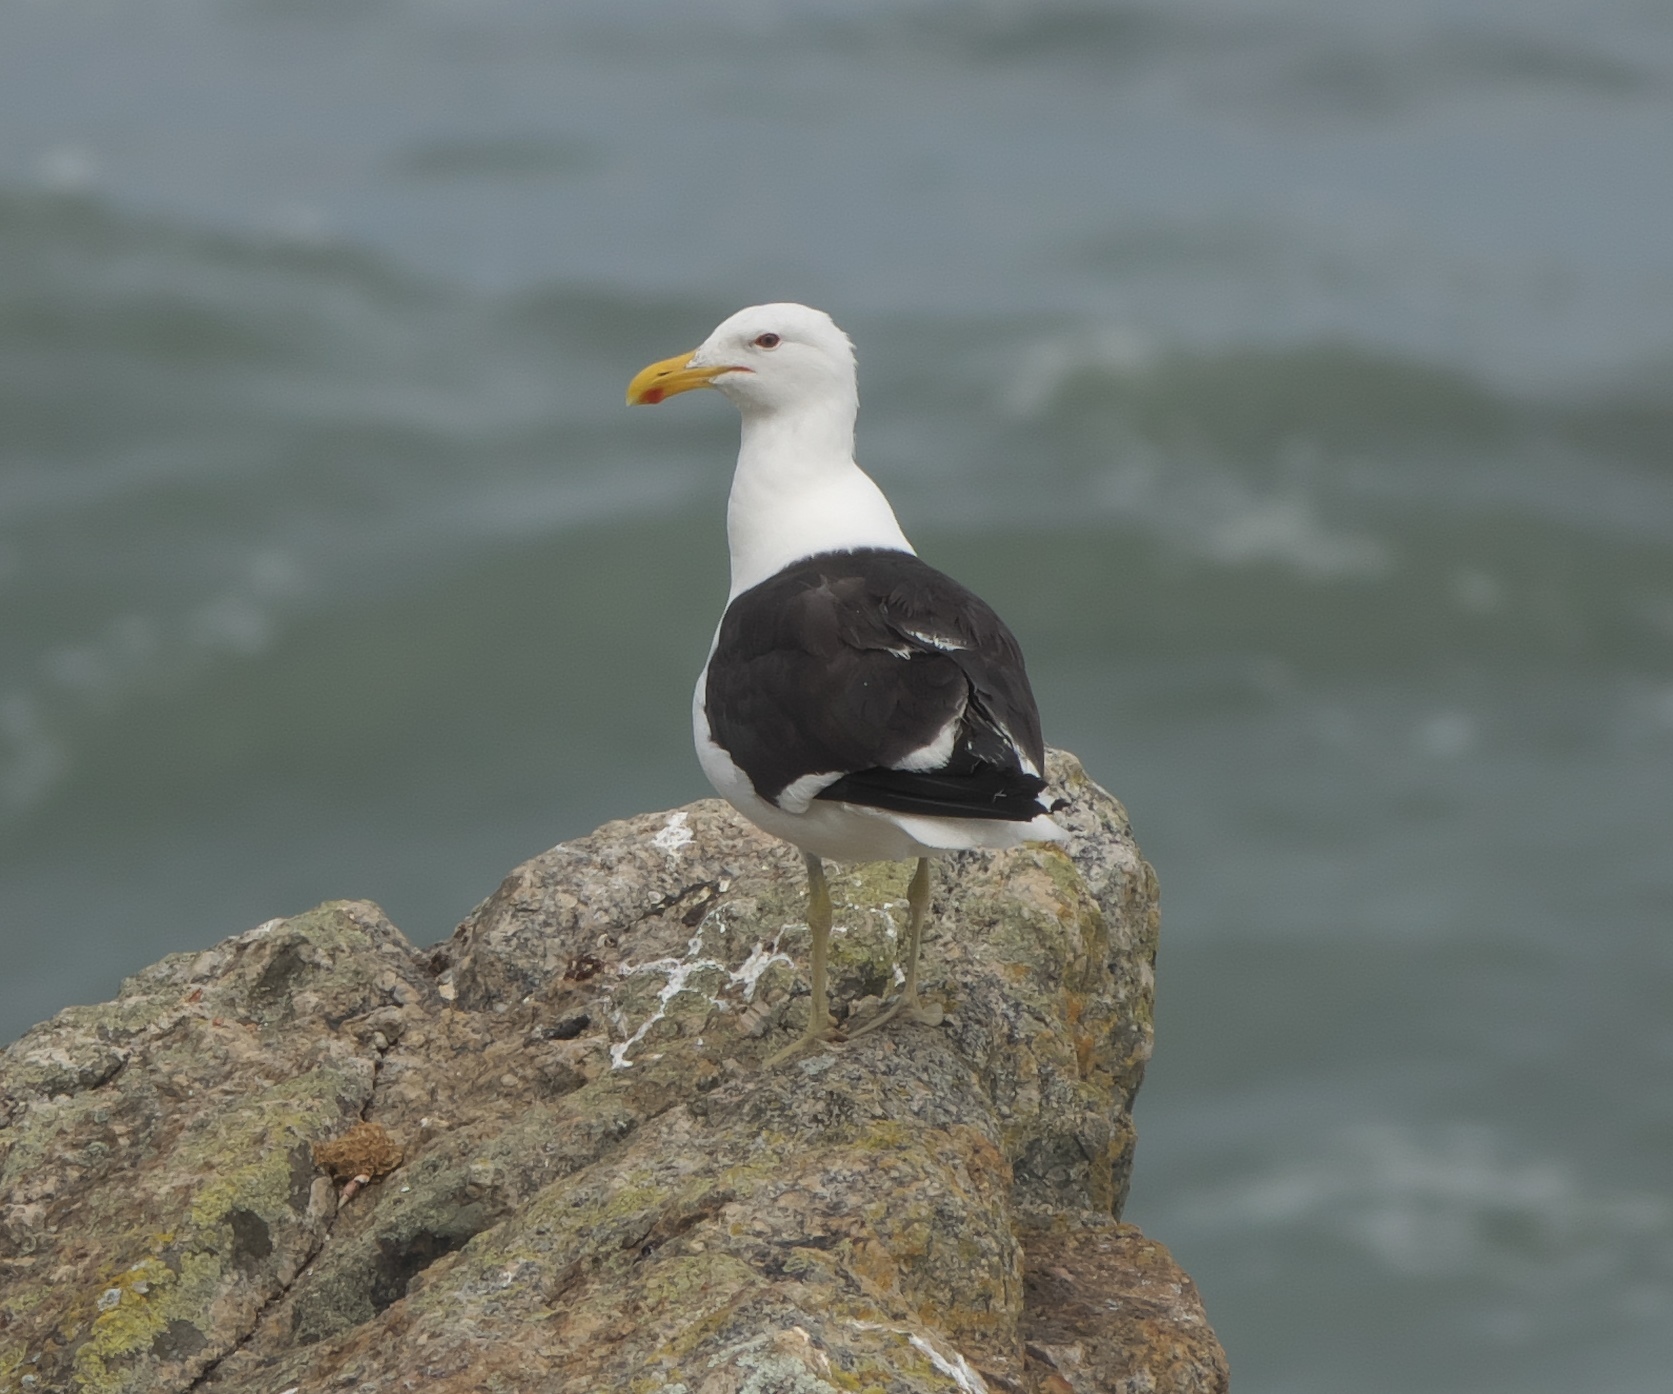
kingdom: Animalia
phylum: Chordata
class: Aves
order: Charadriiformes
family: Laridae
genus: Larus
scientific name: Larus dominicanus
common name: Kelp gull
